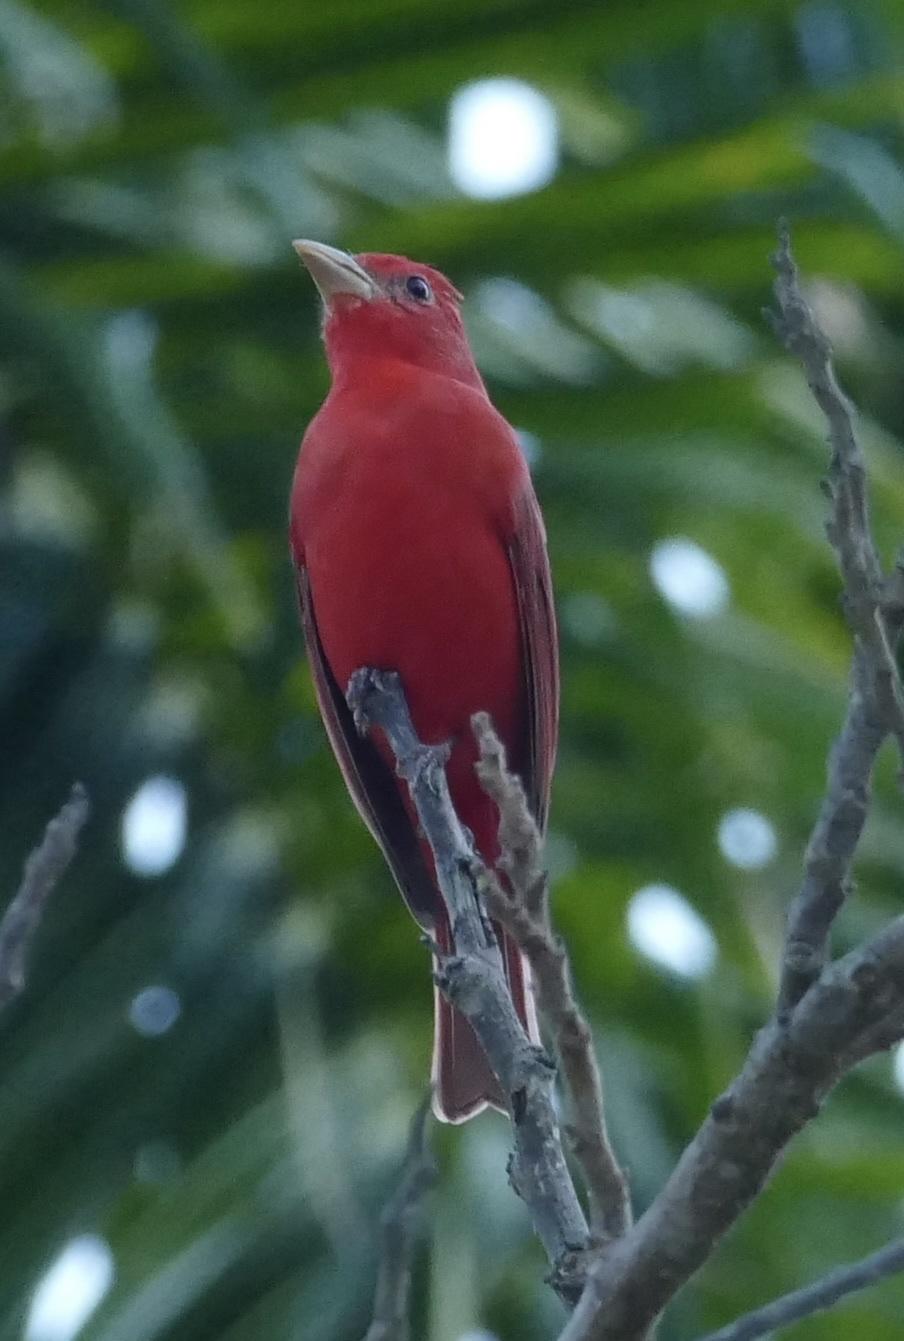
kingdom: Animalia
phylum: Chordata
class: Aves
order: Passeriformes
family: Cardinalidae
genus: Piranga
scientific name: Piranga rubra
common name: Summer tanager
